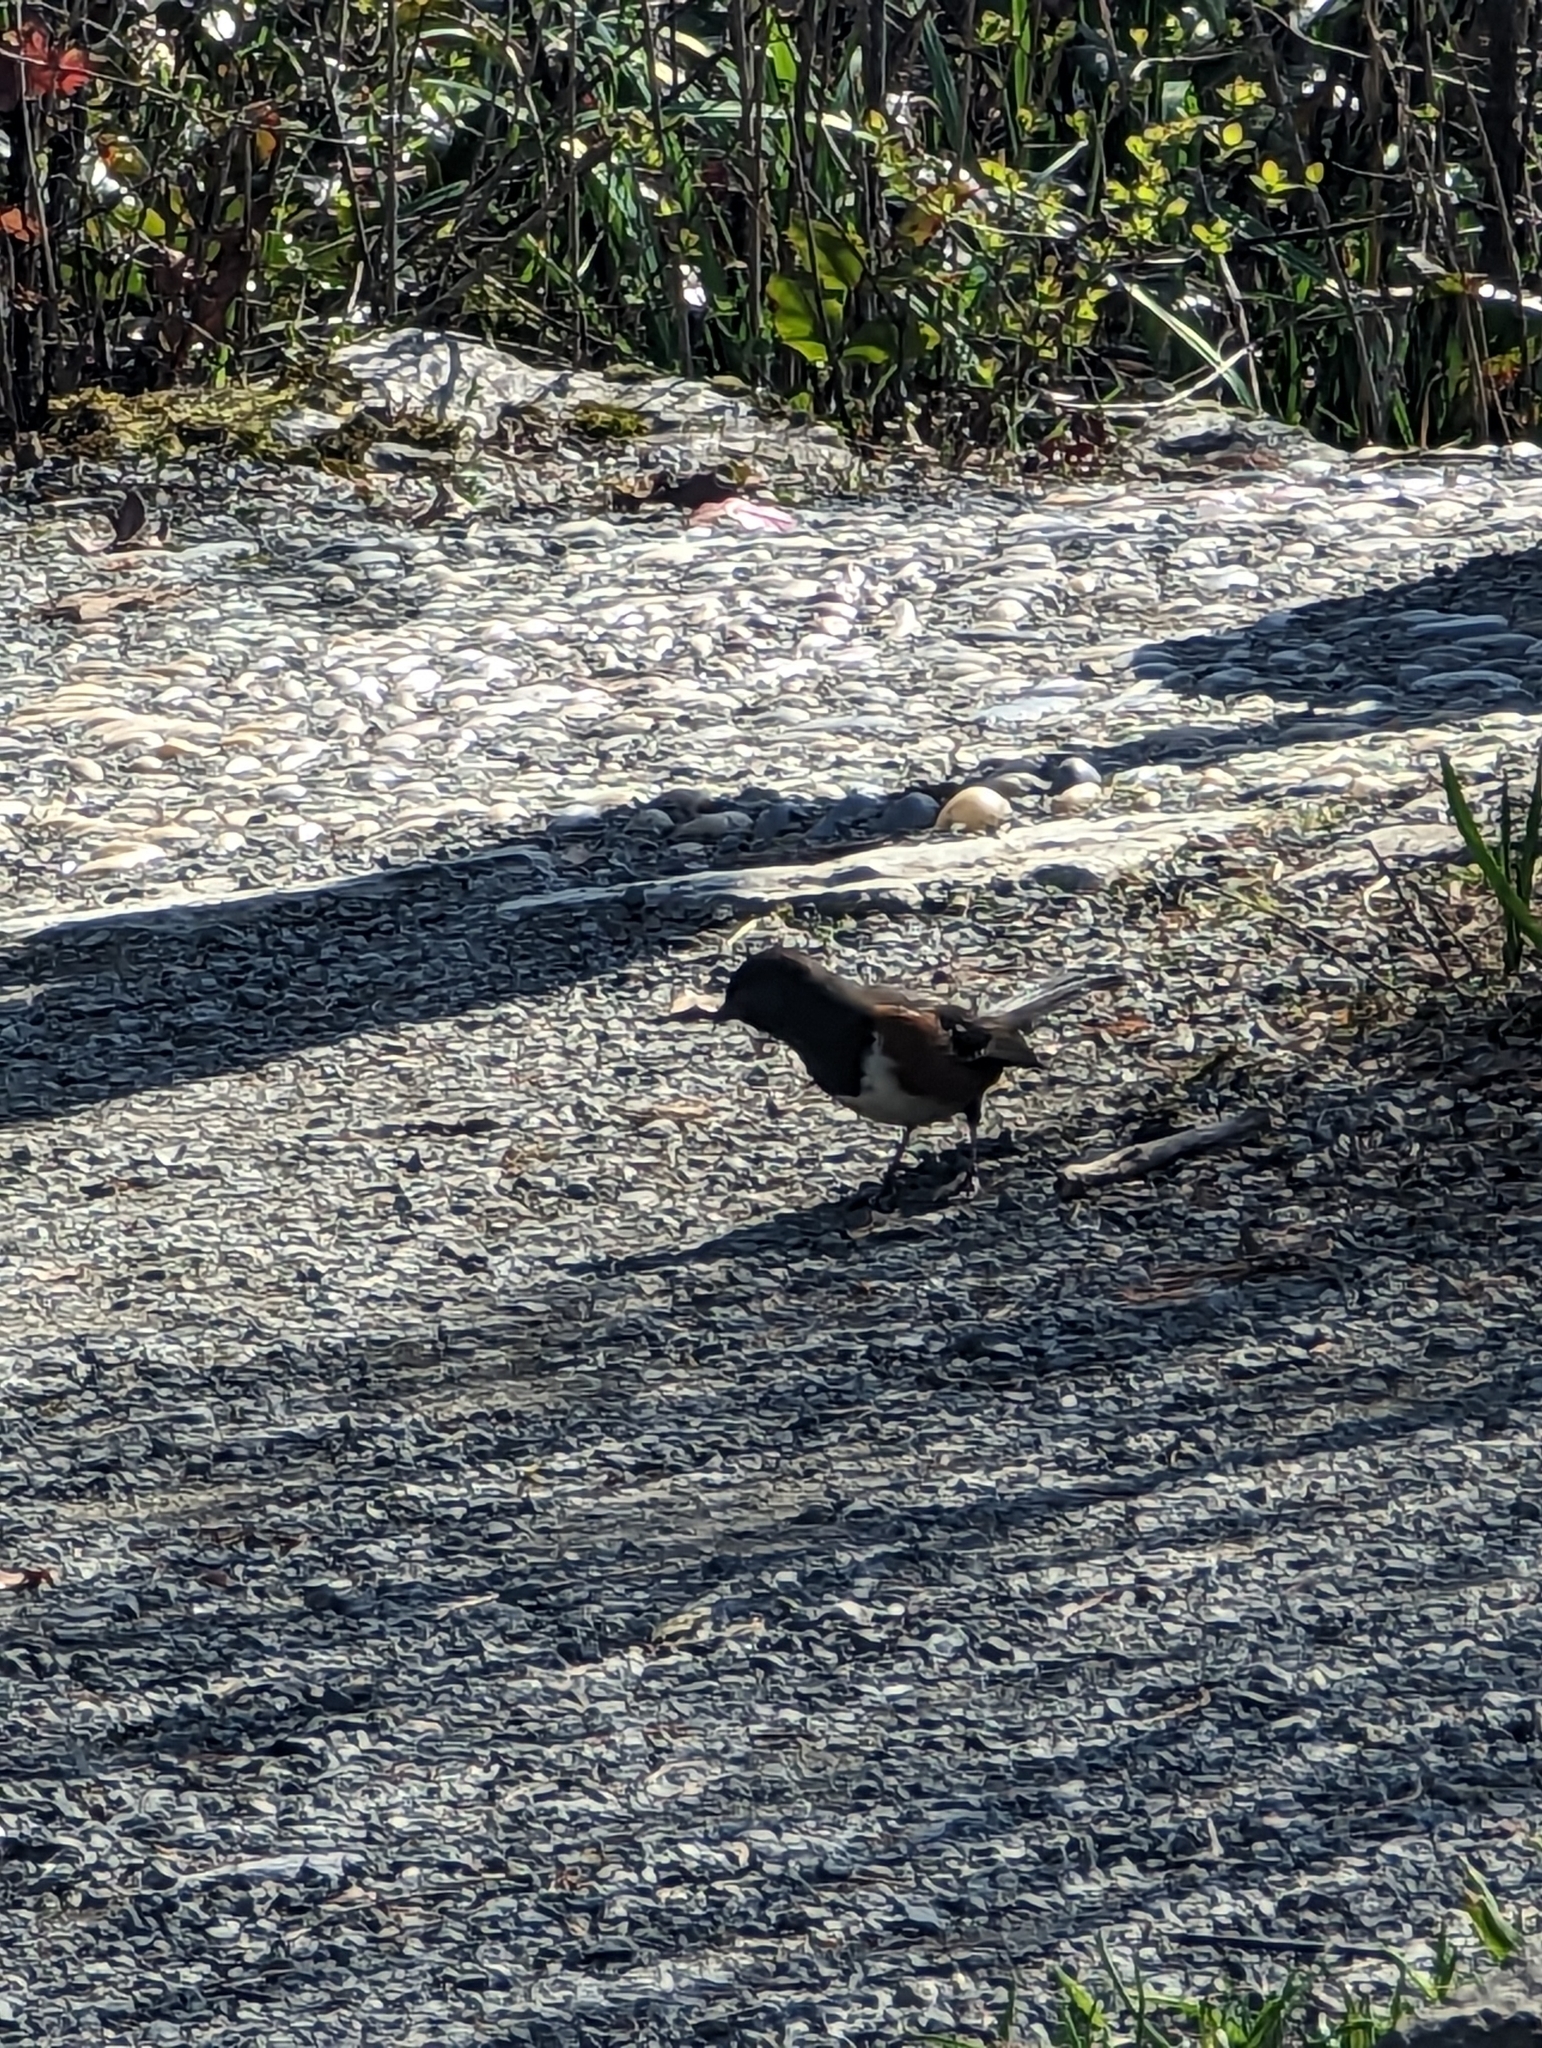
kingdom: Animalia
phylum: Chordata
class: Aves
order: Passeriformes
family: Passerellidae
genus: Pipilo
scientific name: Pipilo maculatus
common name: Spotted towhee
